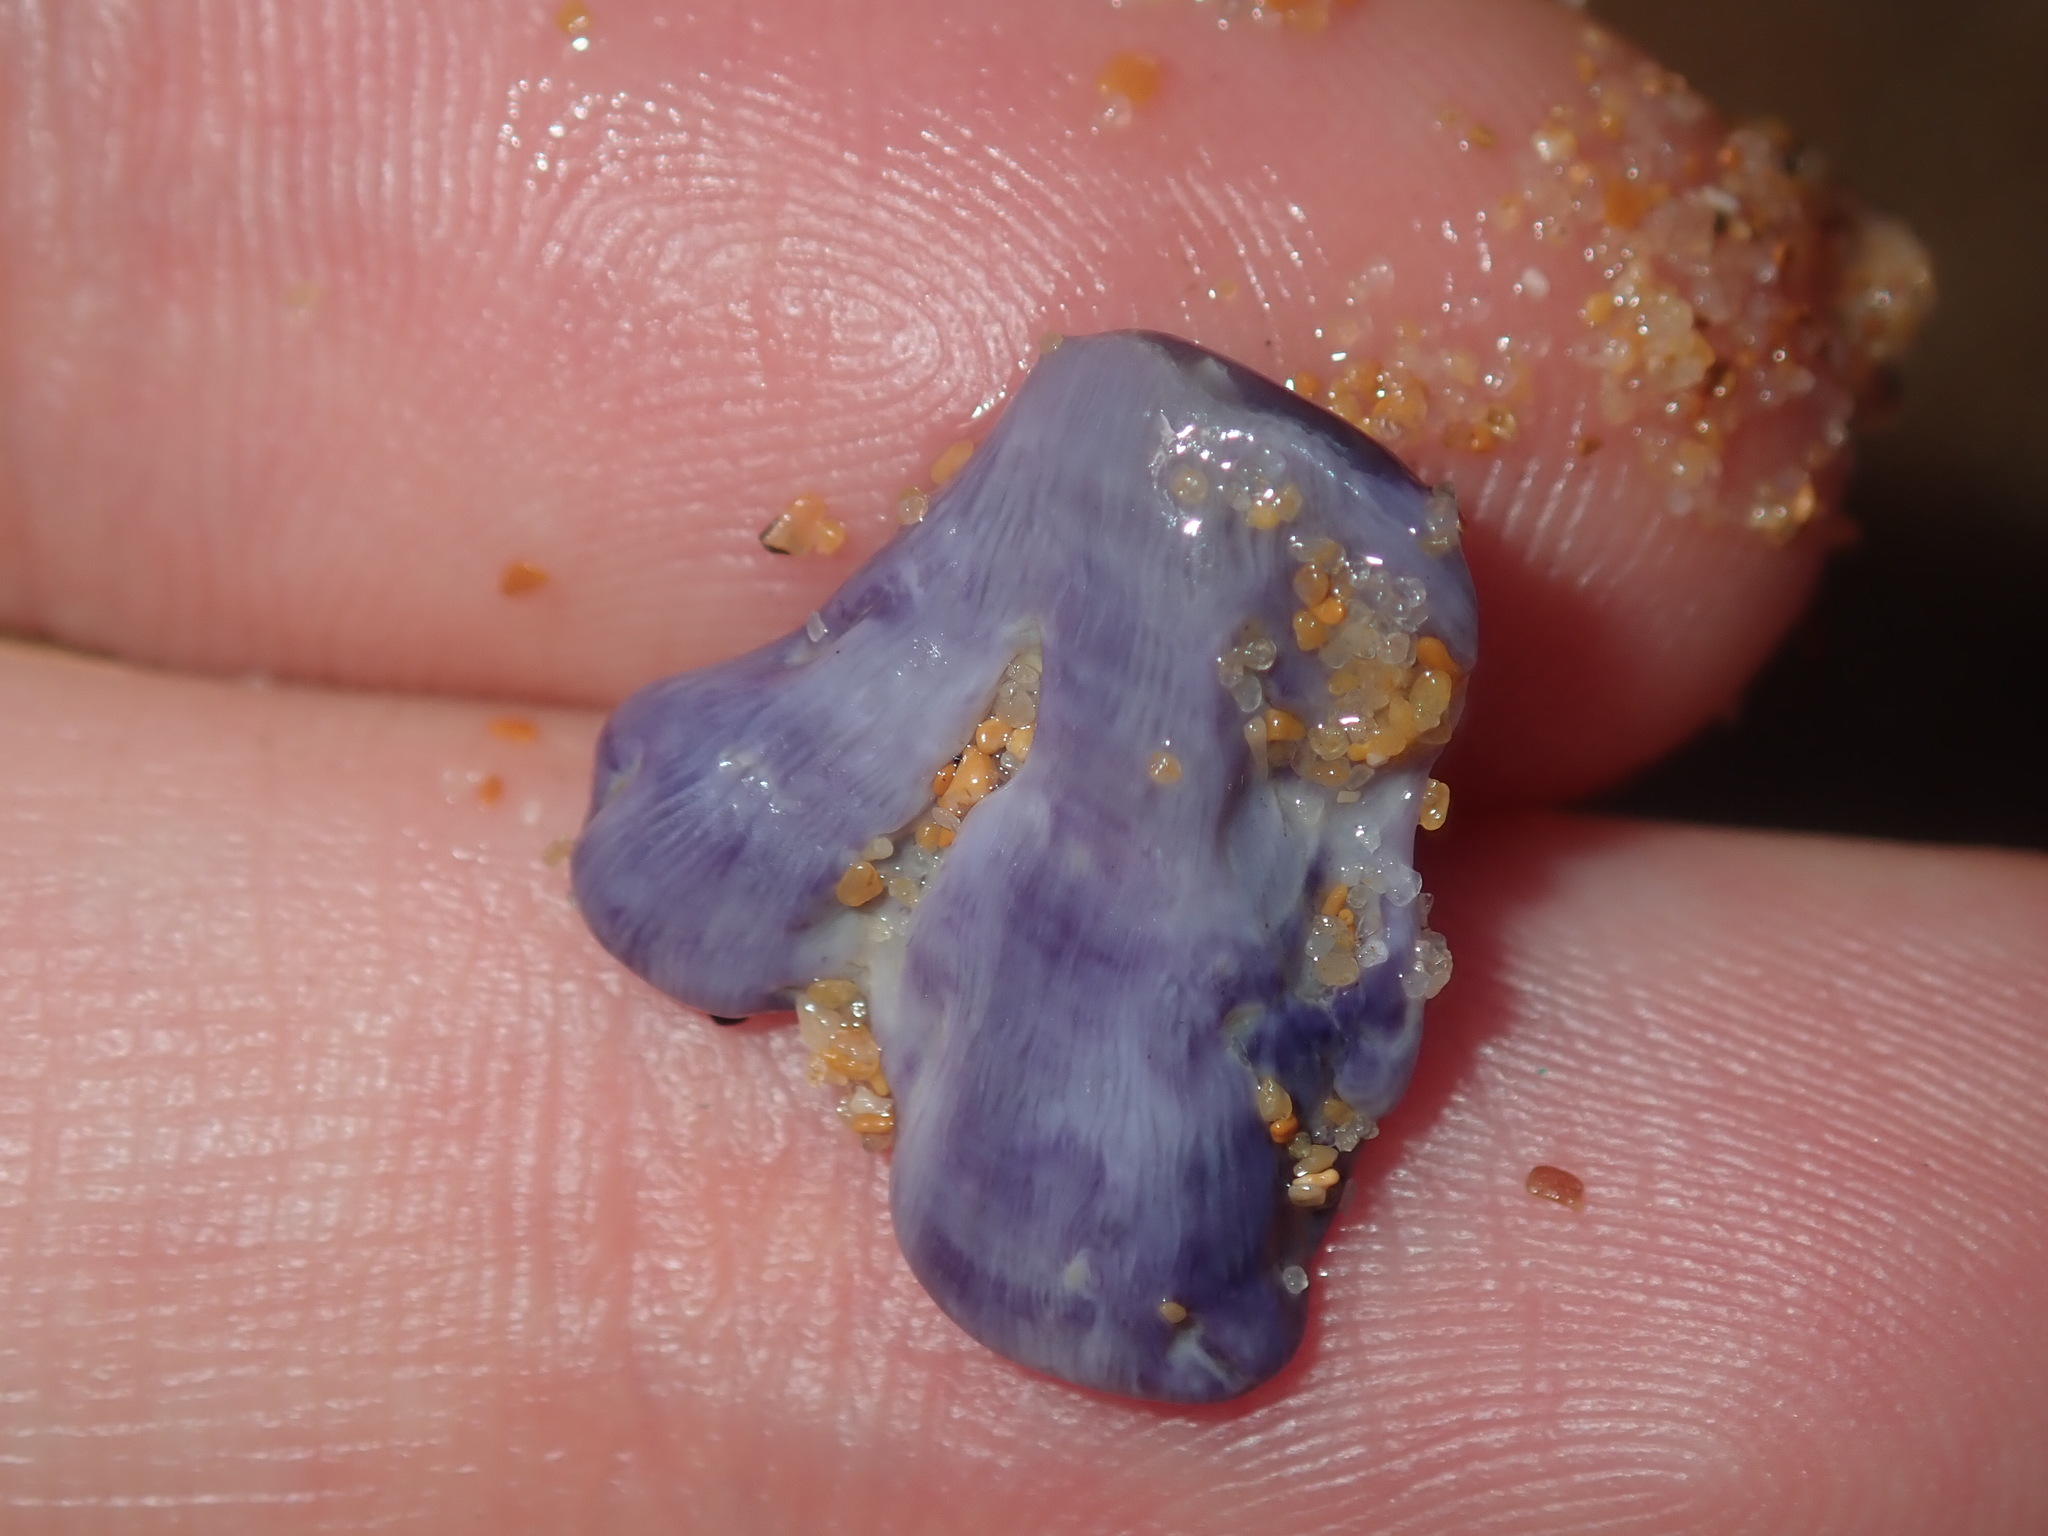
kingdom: Animalia
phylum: Arthropoda
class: Maxillopoda
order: Sessilia
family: Austrobalanidae
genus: Austrobalanus
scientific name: Austrobalanus imperator
